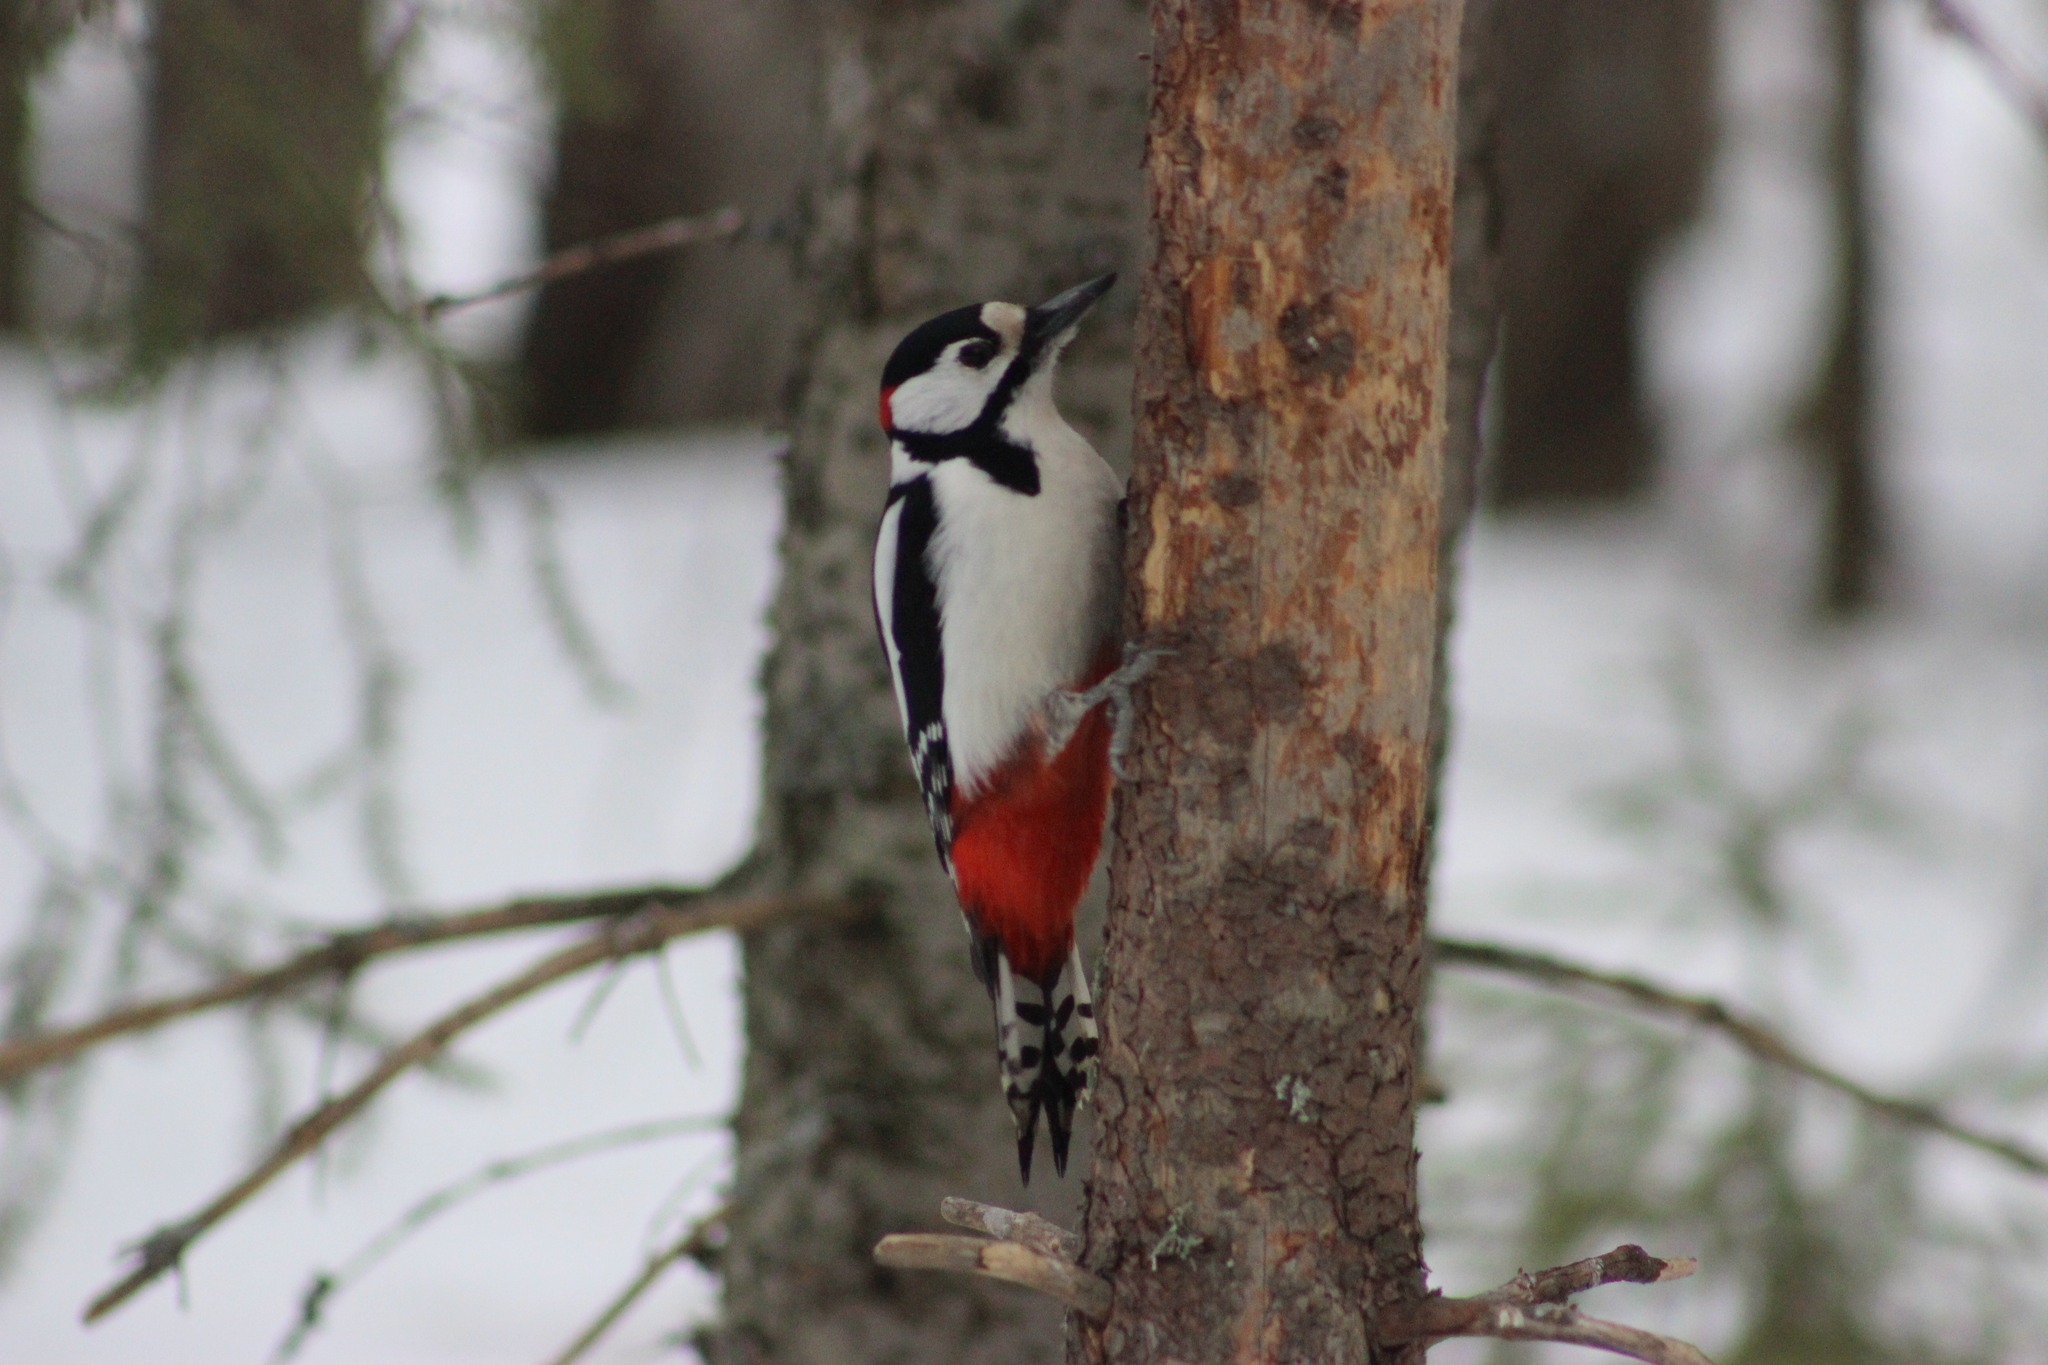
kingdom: Animalia
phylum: Chordata
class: Aves
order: Piciformes
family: Picidae
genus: Dendrocopos
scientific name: Dendrocopos major
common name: Great spotted woodpecker
